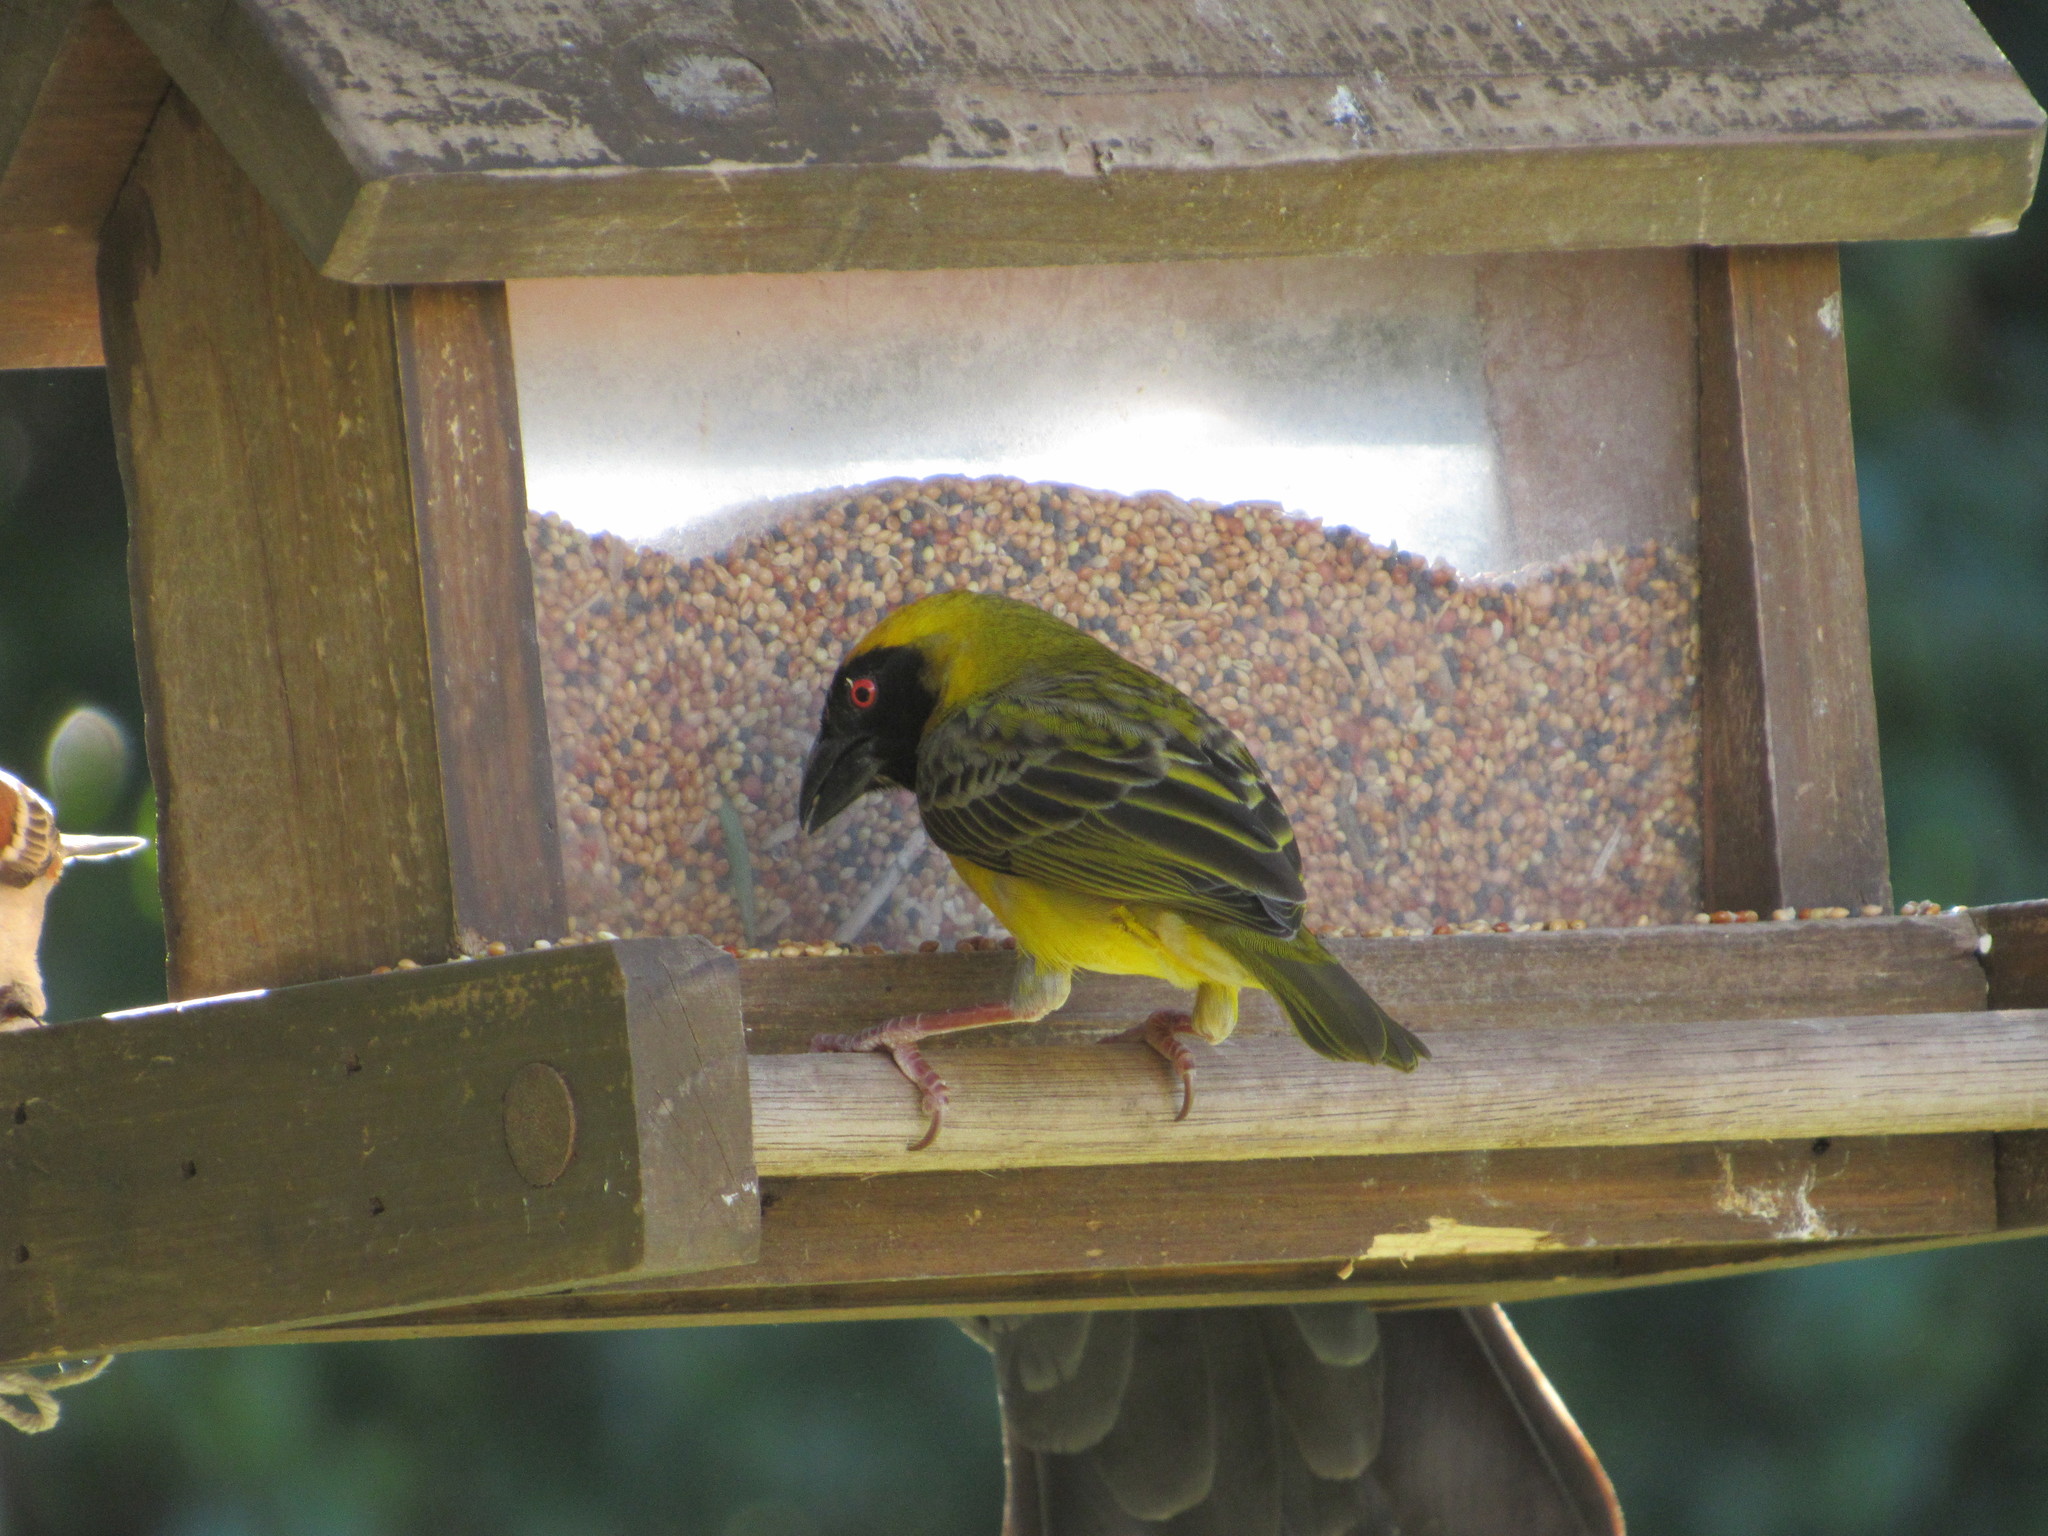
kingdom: Animalia
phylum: Chordata
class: Aves
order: Passeriformes
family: Ploceidae
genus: Ploceus
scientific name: Ploceus velatus
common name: Southern masked weaver
